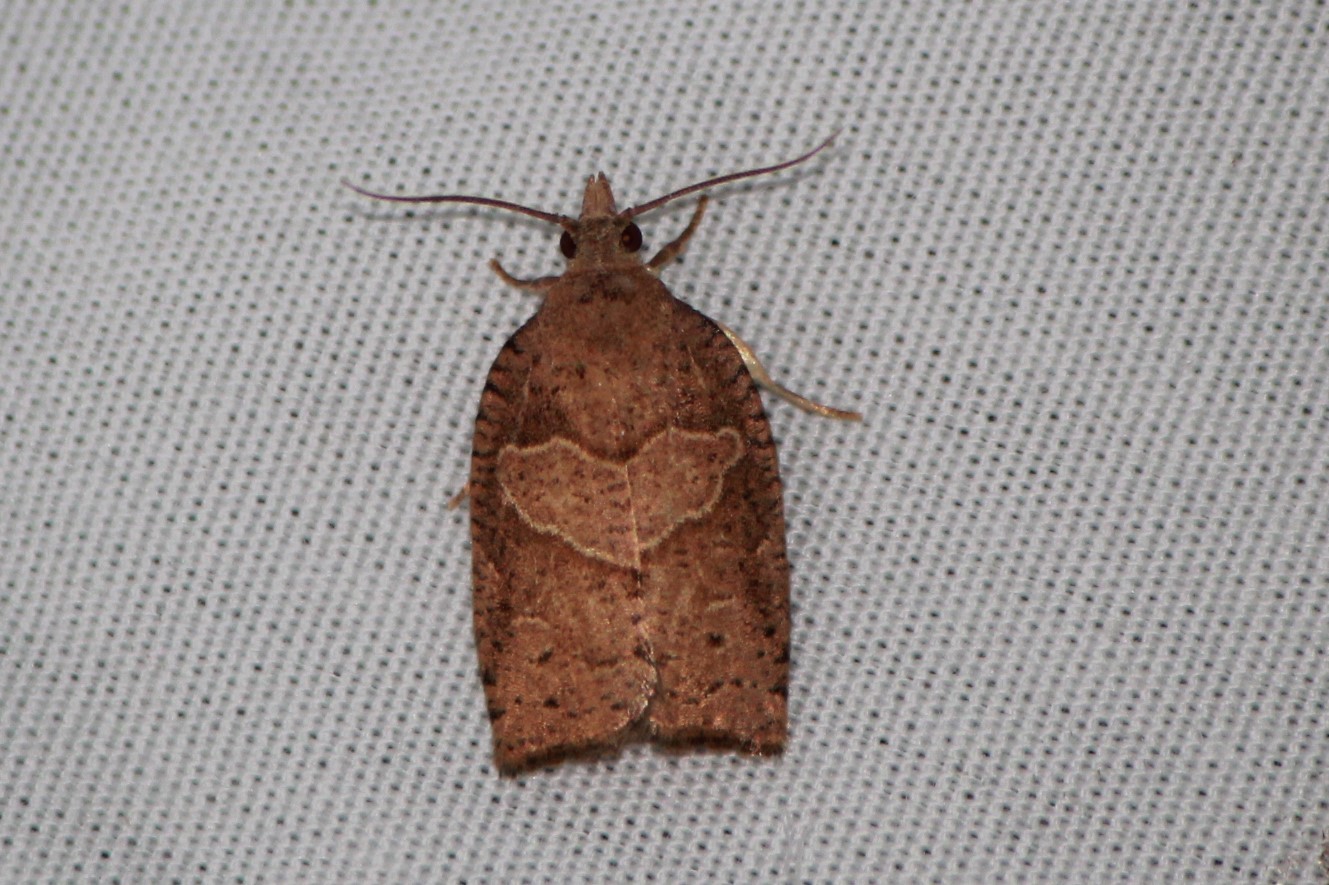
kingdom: Animalia
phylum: Arthropoda
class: Insecta
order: Lepidoptera
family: Tortricidae
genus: Pandemis
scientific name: Pandemis lamprosana
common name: Woodgrain leafroller moth
